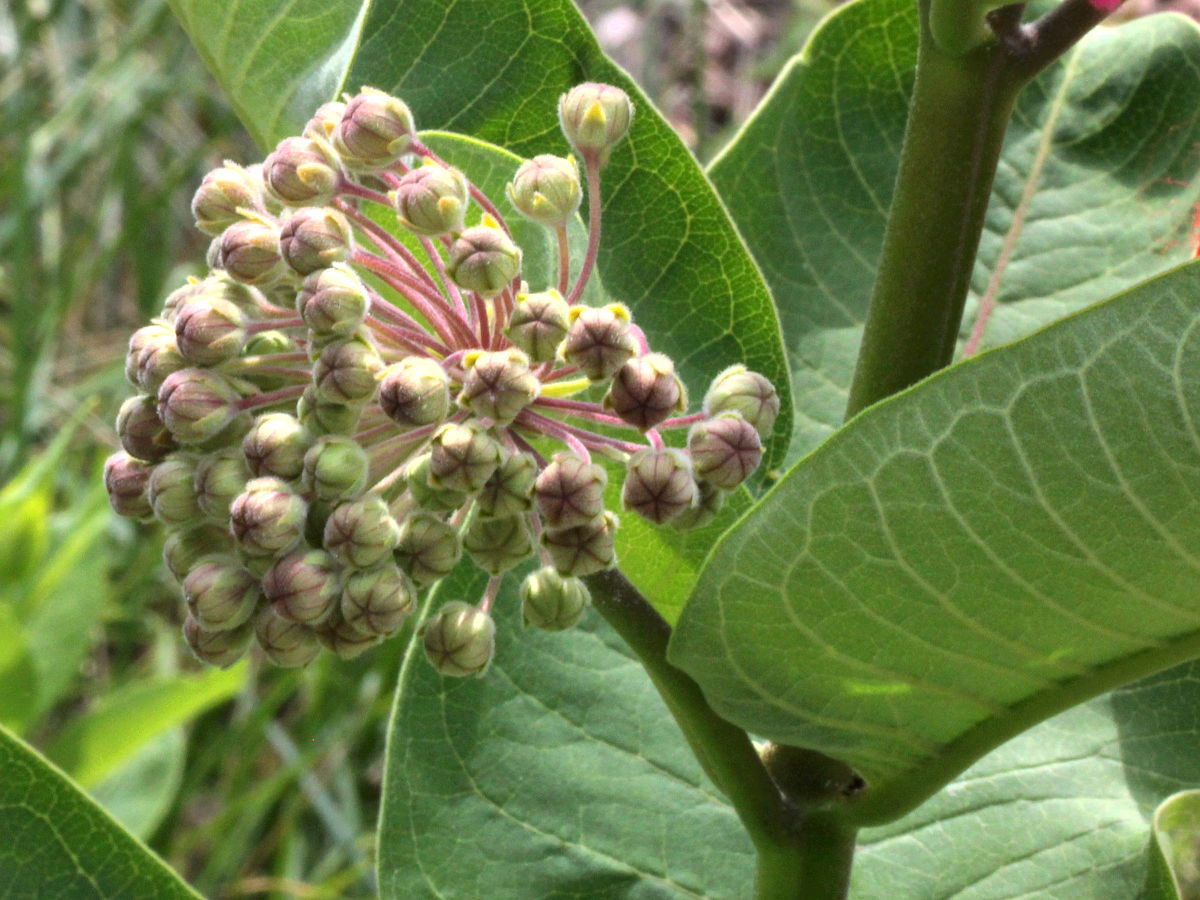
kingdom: Plantae
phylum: Tracheophyta
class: Magnoliopsida
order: Gentianales
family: Apocynaceae
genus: Asclepias
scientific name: Asclepias syriaca
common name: Common milkweed
